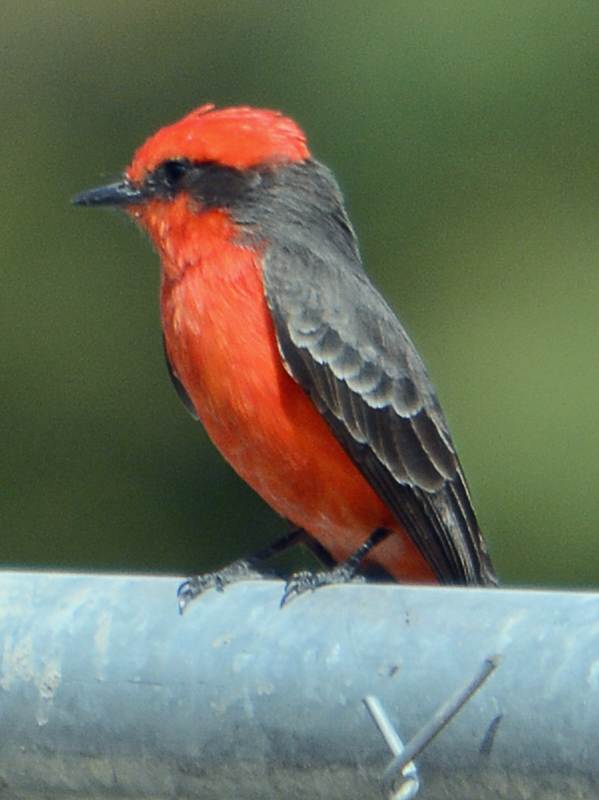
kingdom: Animalia
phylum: Chordata
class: Aves
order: Passeriformes
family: Tyrannidae
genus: Pyrocephalus
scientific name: Pyrocephalus rubinus
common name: Vermilion flycatcher
